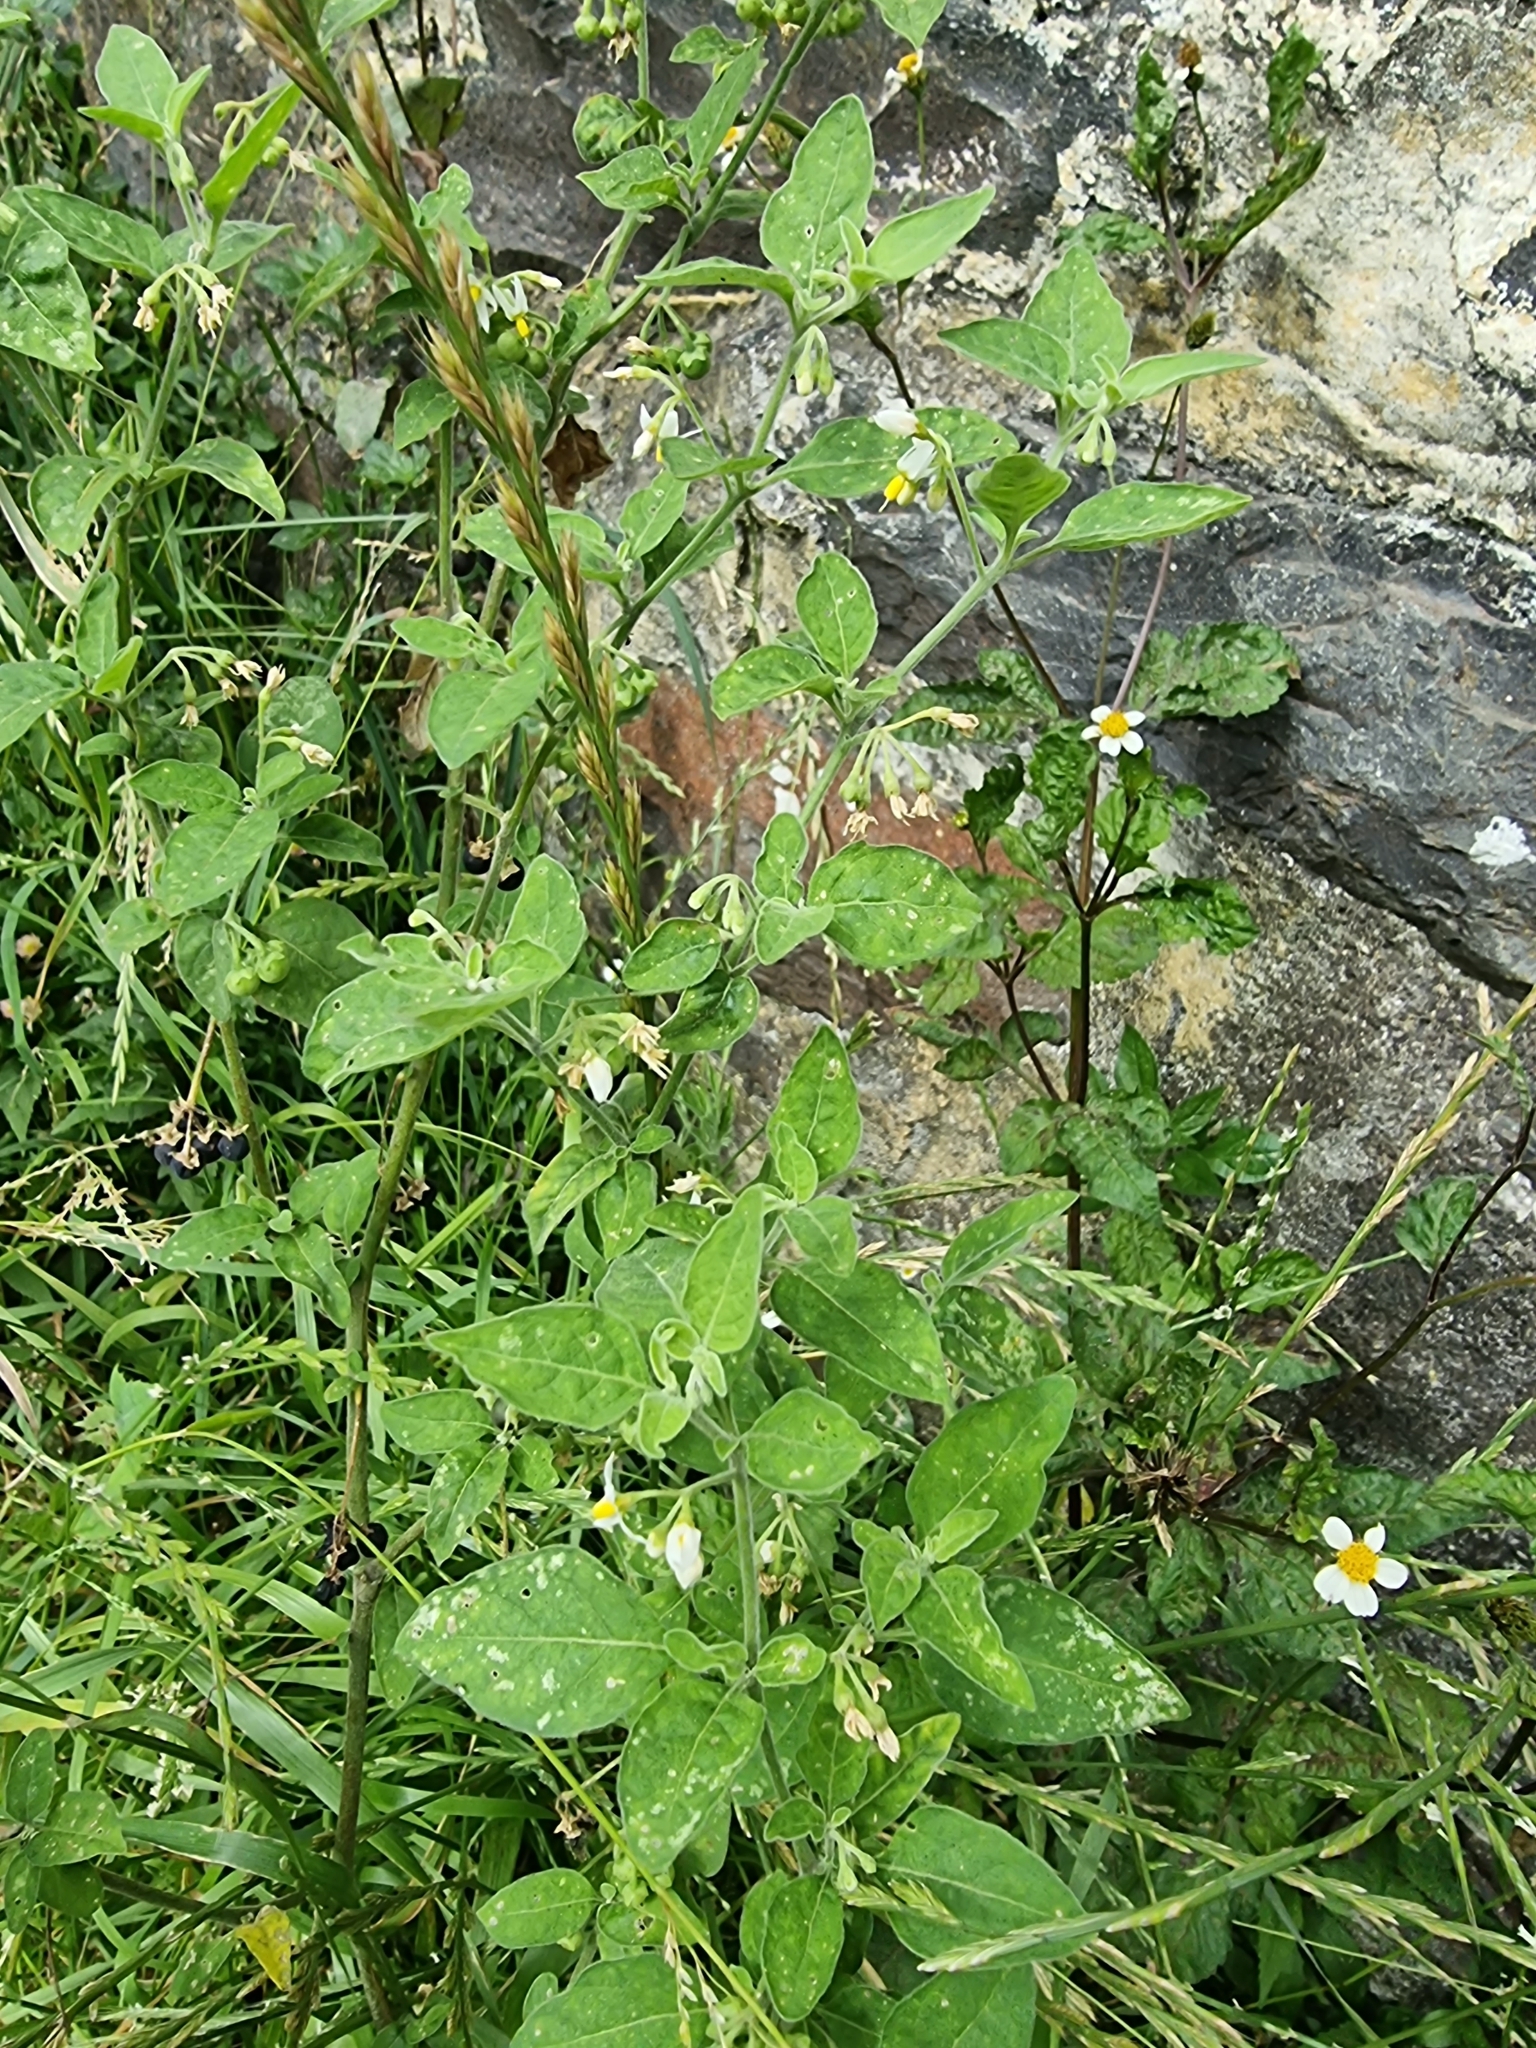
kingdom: Plantae
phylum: Tracheophyta
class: Magnoliopsida
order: Solanales
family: Solanaceae
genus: Solanum
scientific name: Solanum chenopodioides
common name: Tall nightshade
